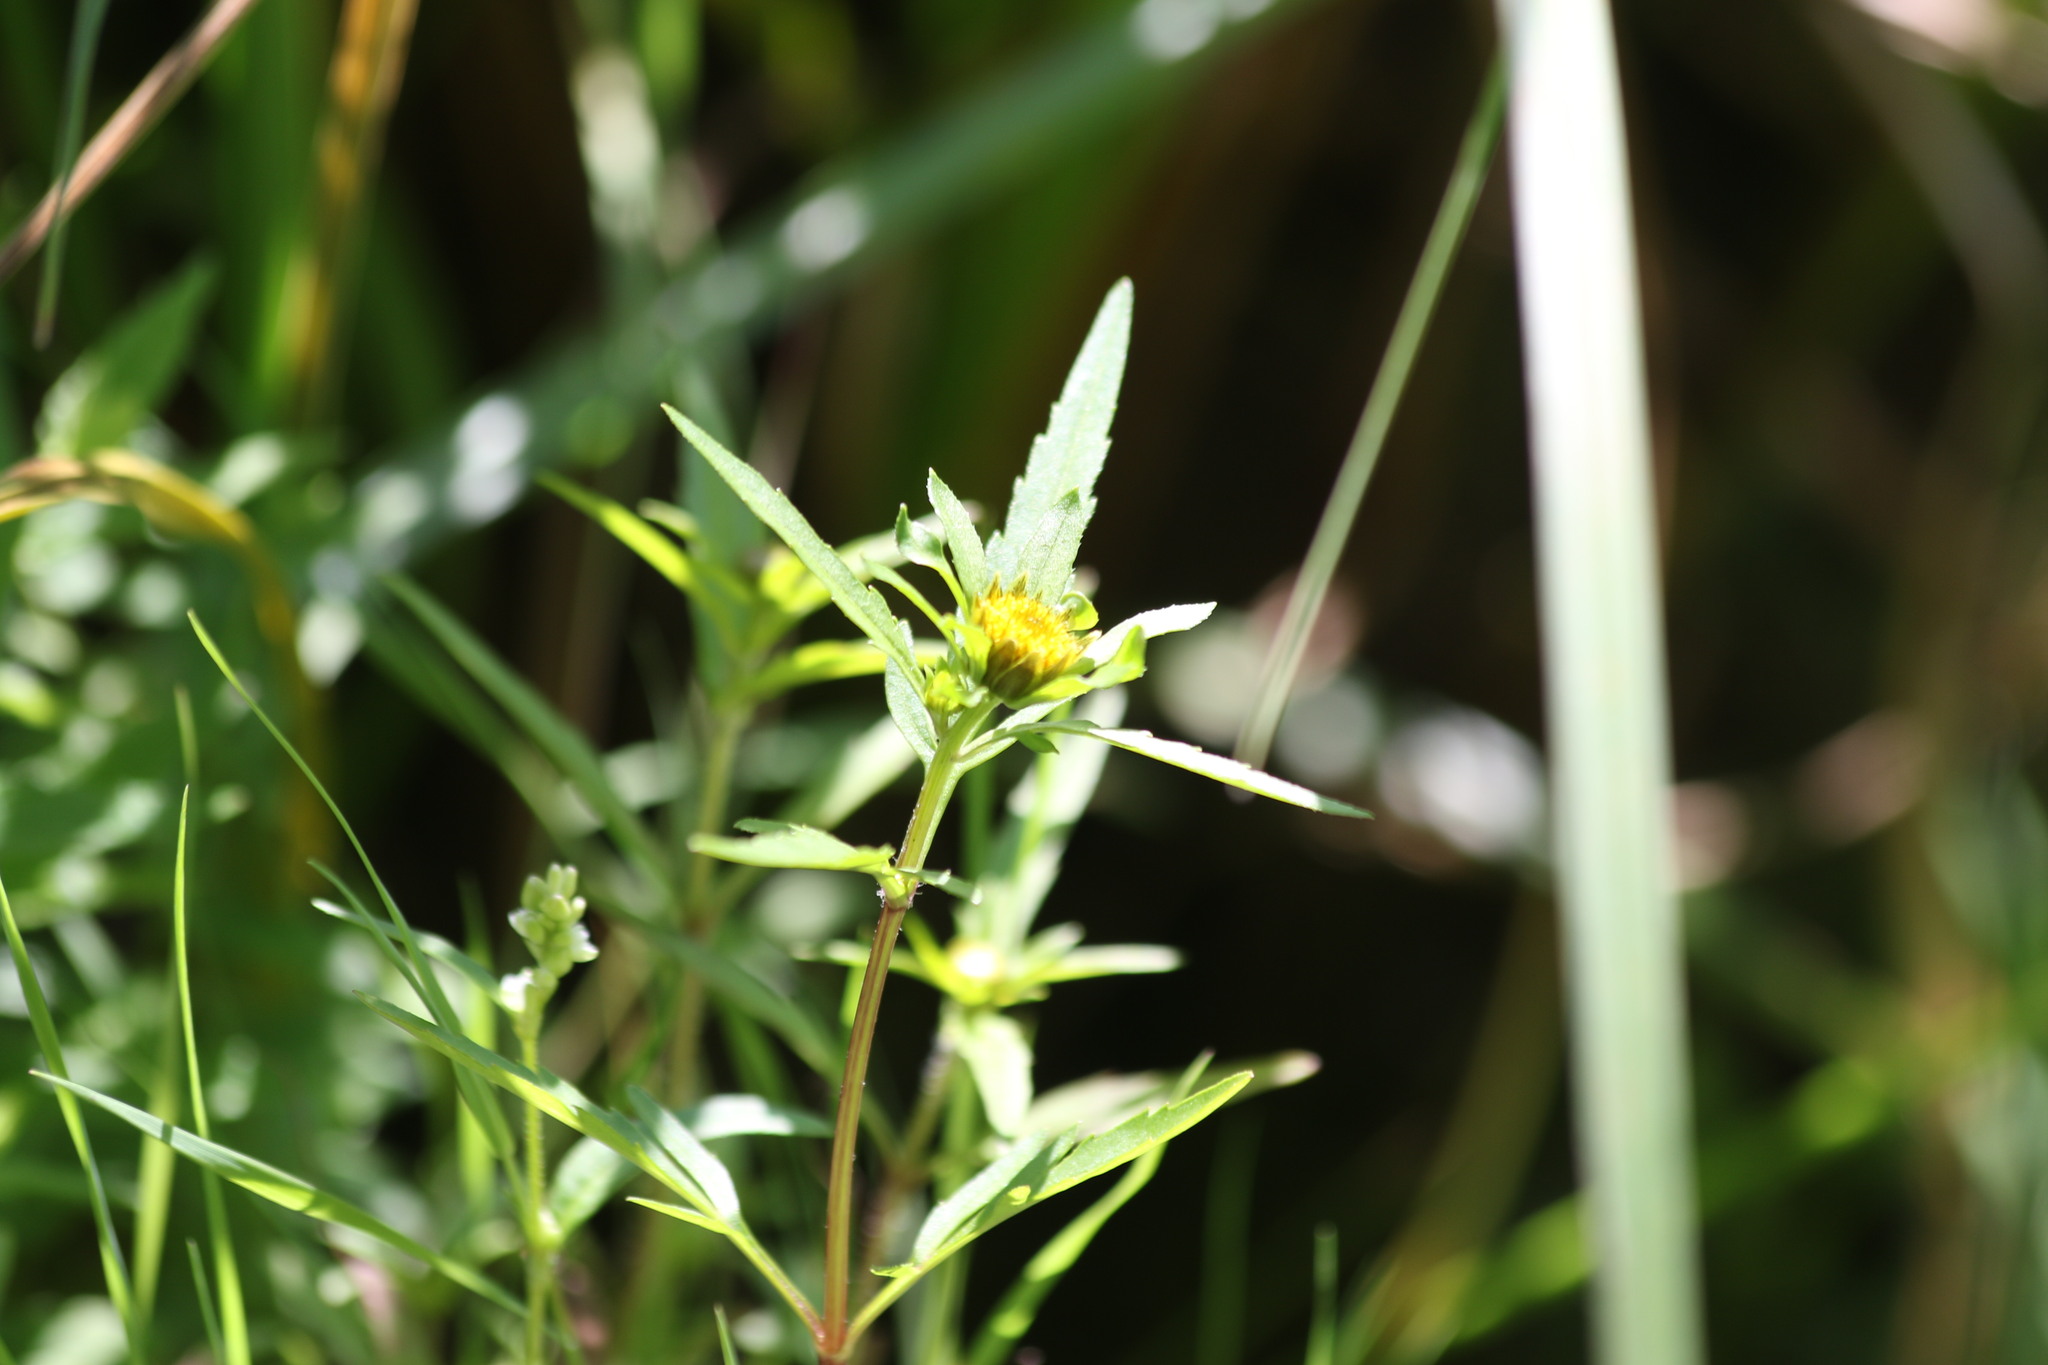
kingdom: Plantae
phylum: Tracheophyta
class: Magnoliopsida
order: Asterales
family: Asteraceae
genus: Bidens
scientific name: Bidens radiata
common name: Radiating bur-marigold
